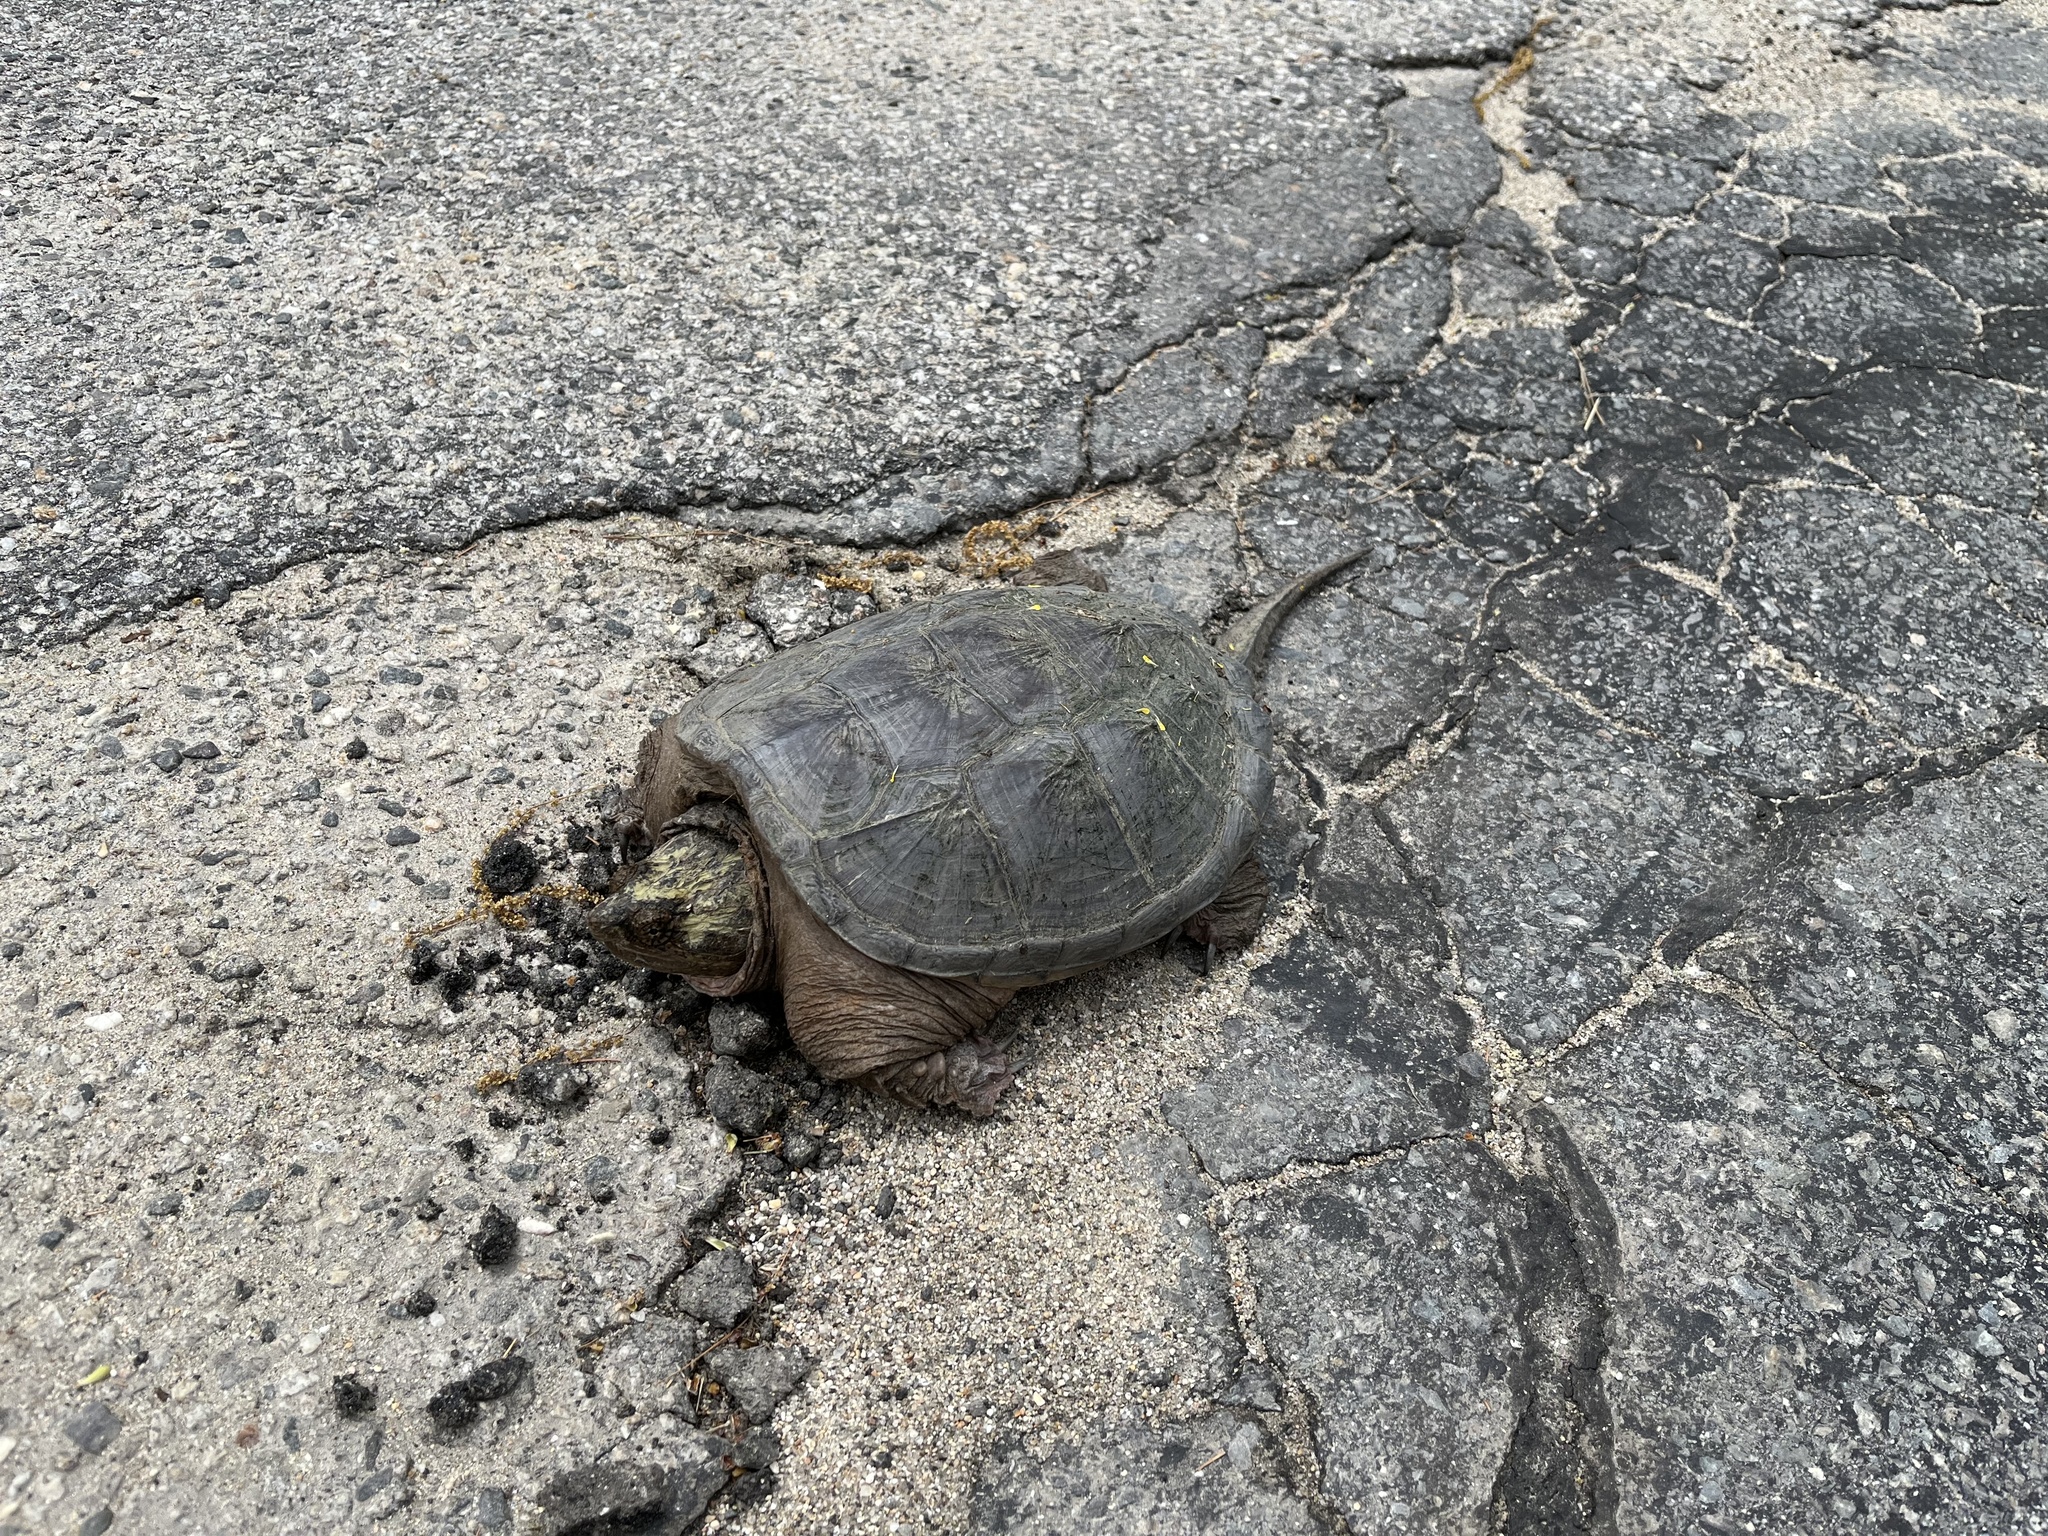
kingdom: Animalia
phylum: Chordata
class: Testudines
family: Chelydridae
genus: Chelydra
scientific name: Chelydra serpentina
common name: Common snapping turtle
